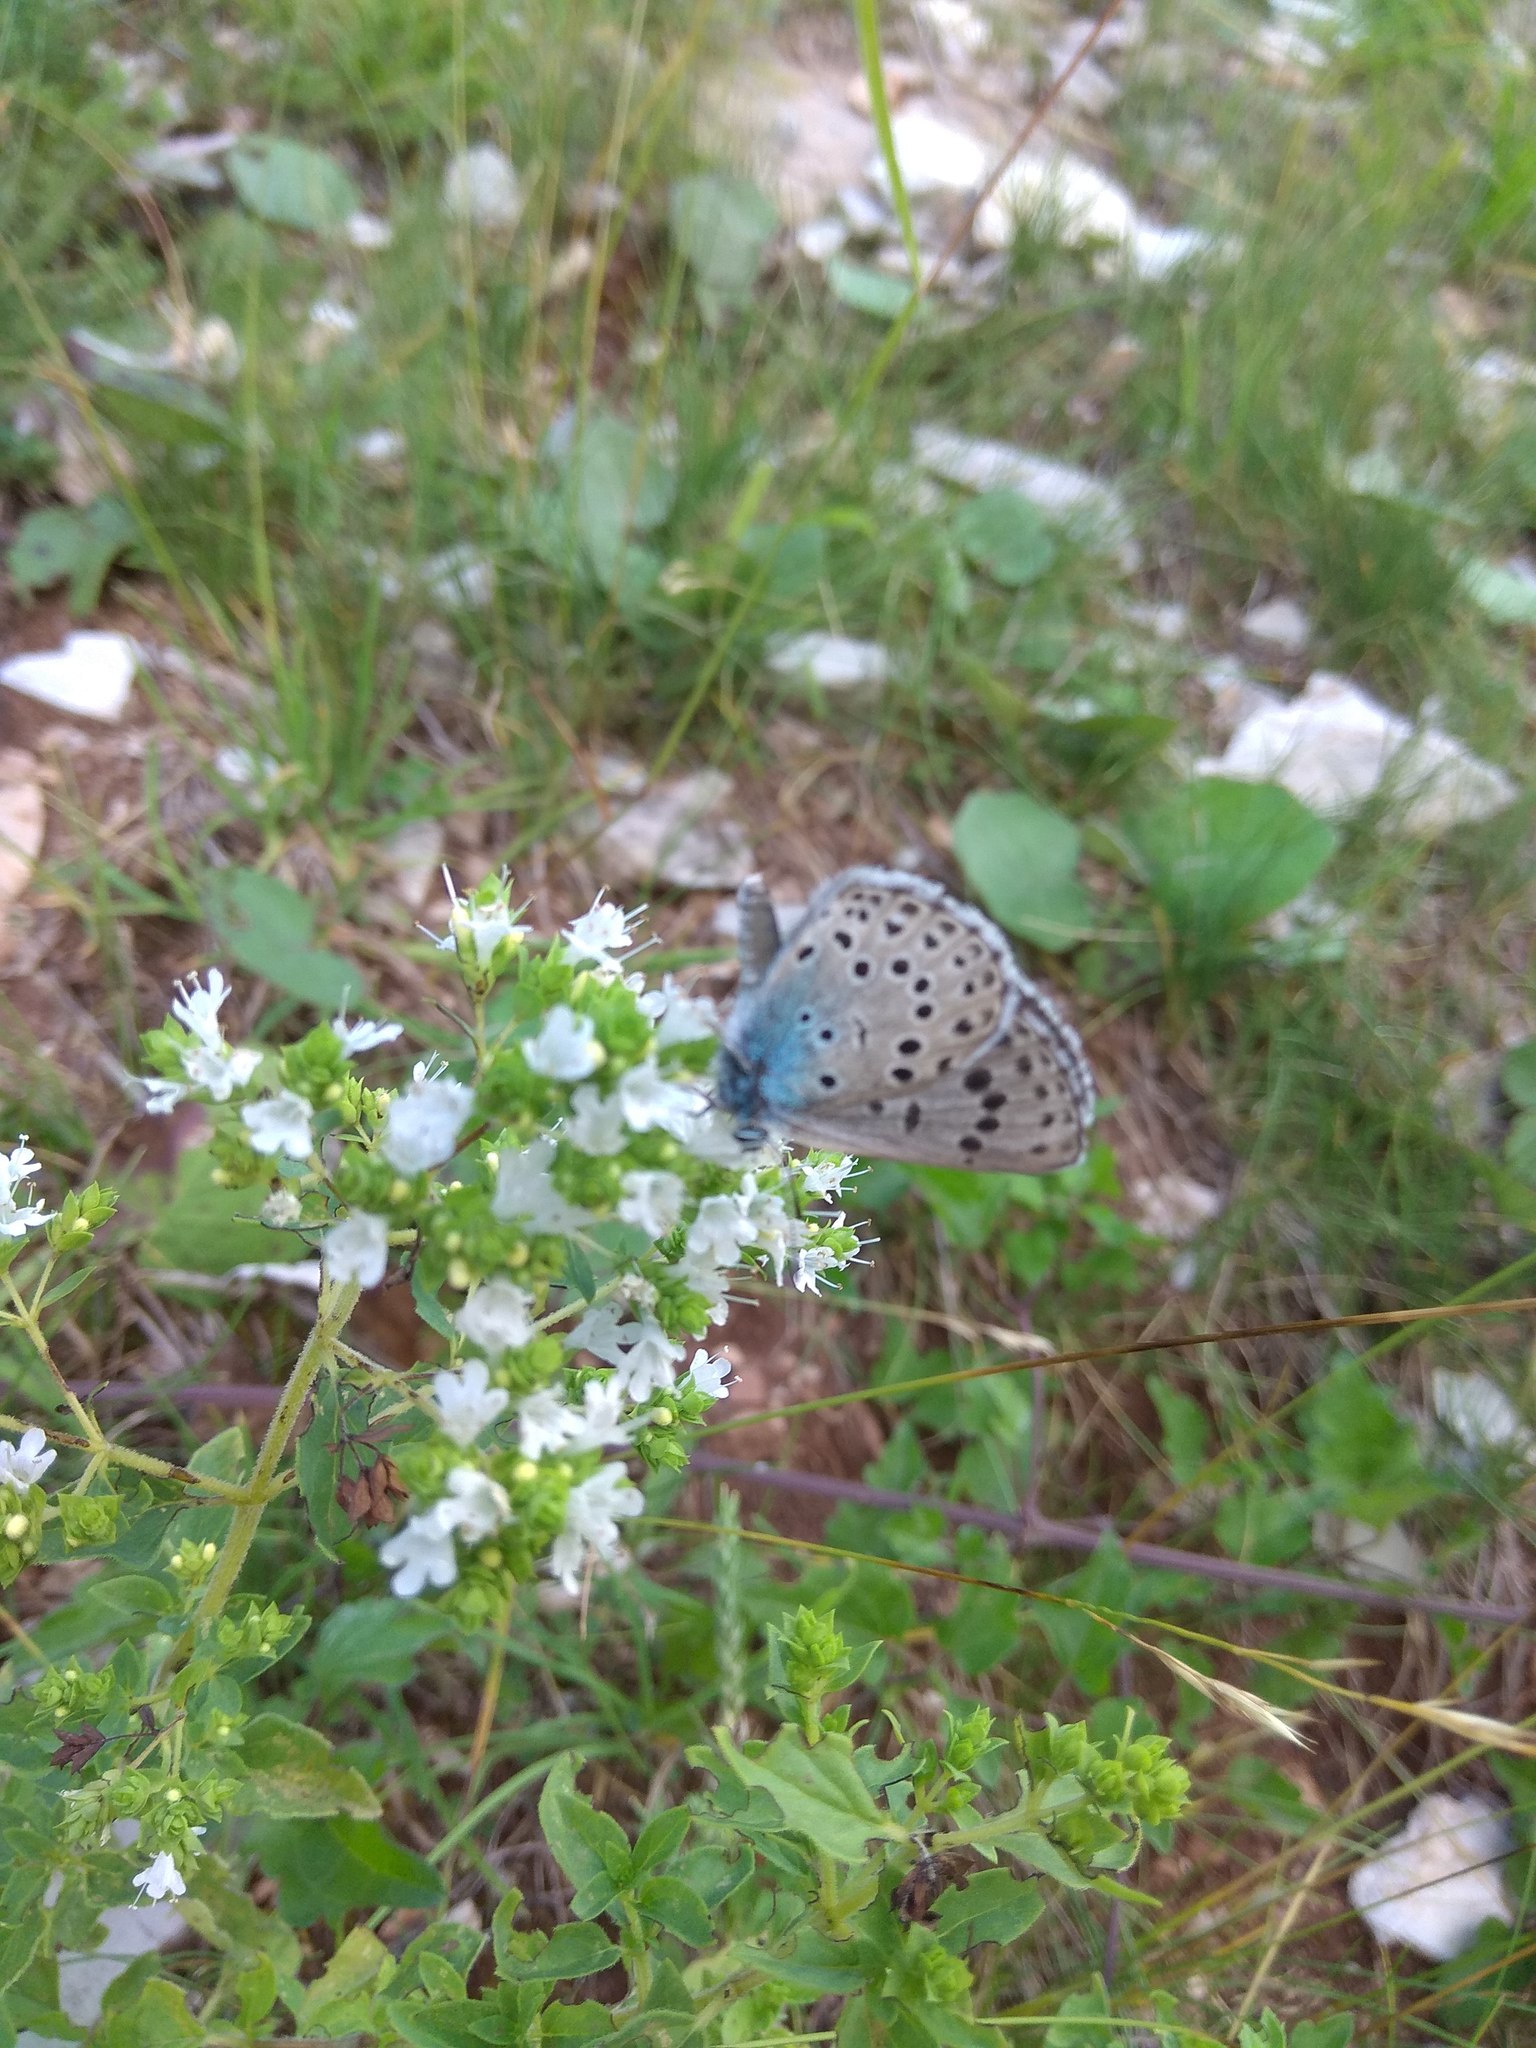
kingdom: Animalia
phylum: Arthropoda
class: Insecta
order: Lepidoptera
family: Lycaenidae
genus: Maculinea
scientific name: Maculinea arion
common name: Large blue
